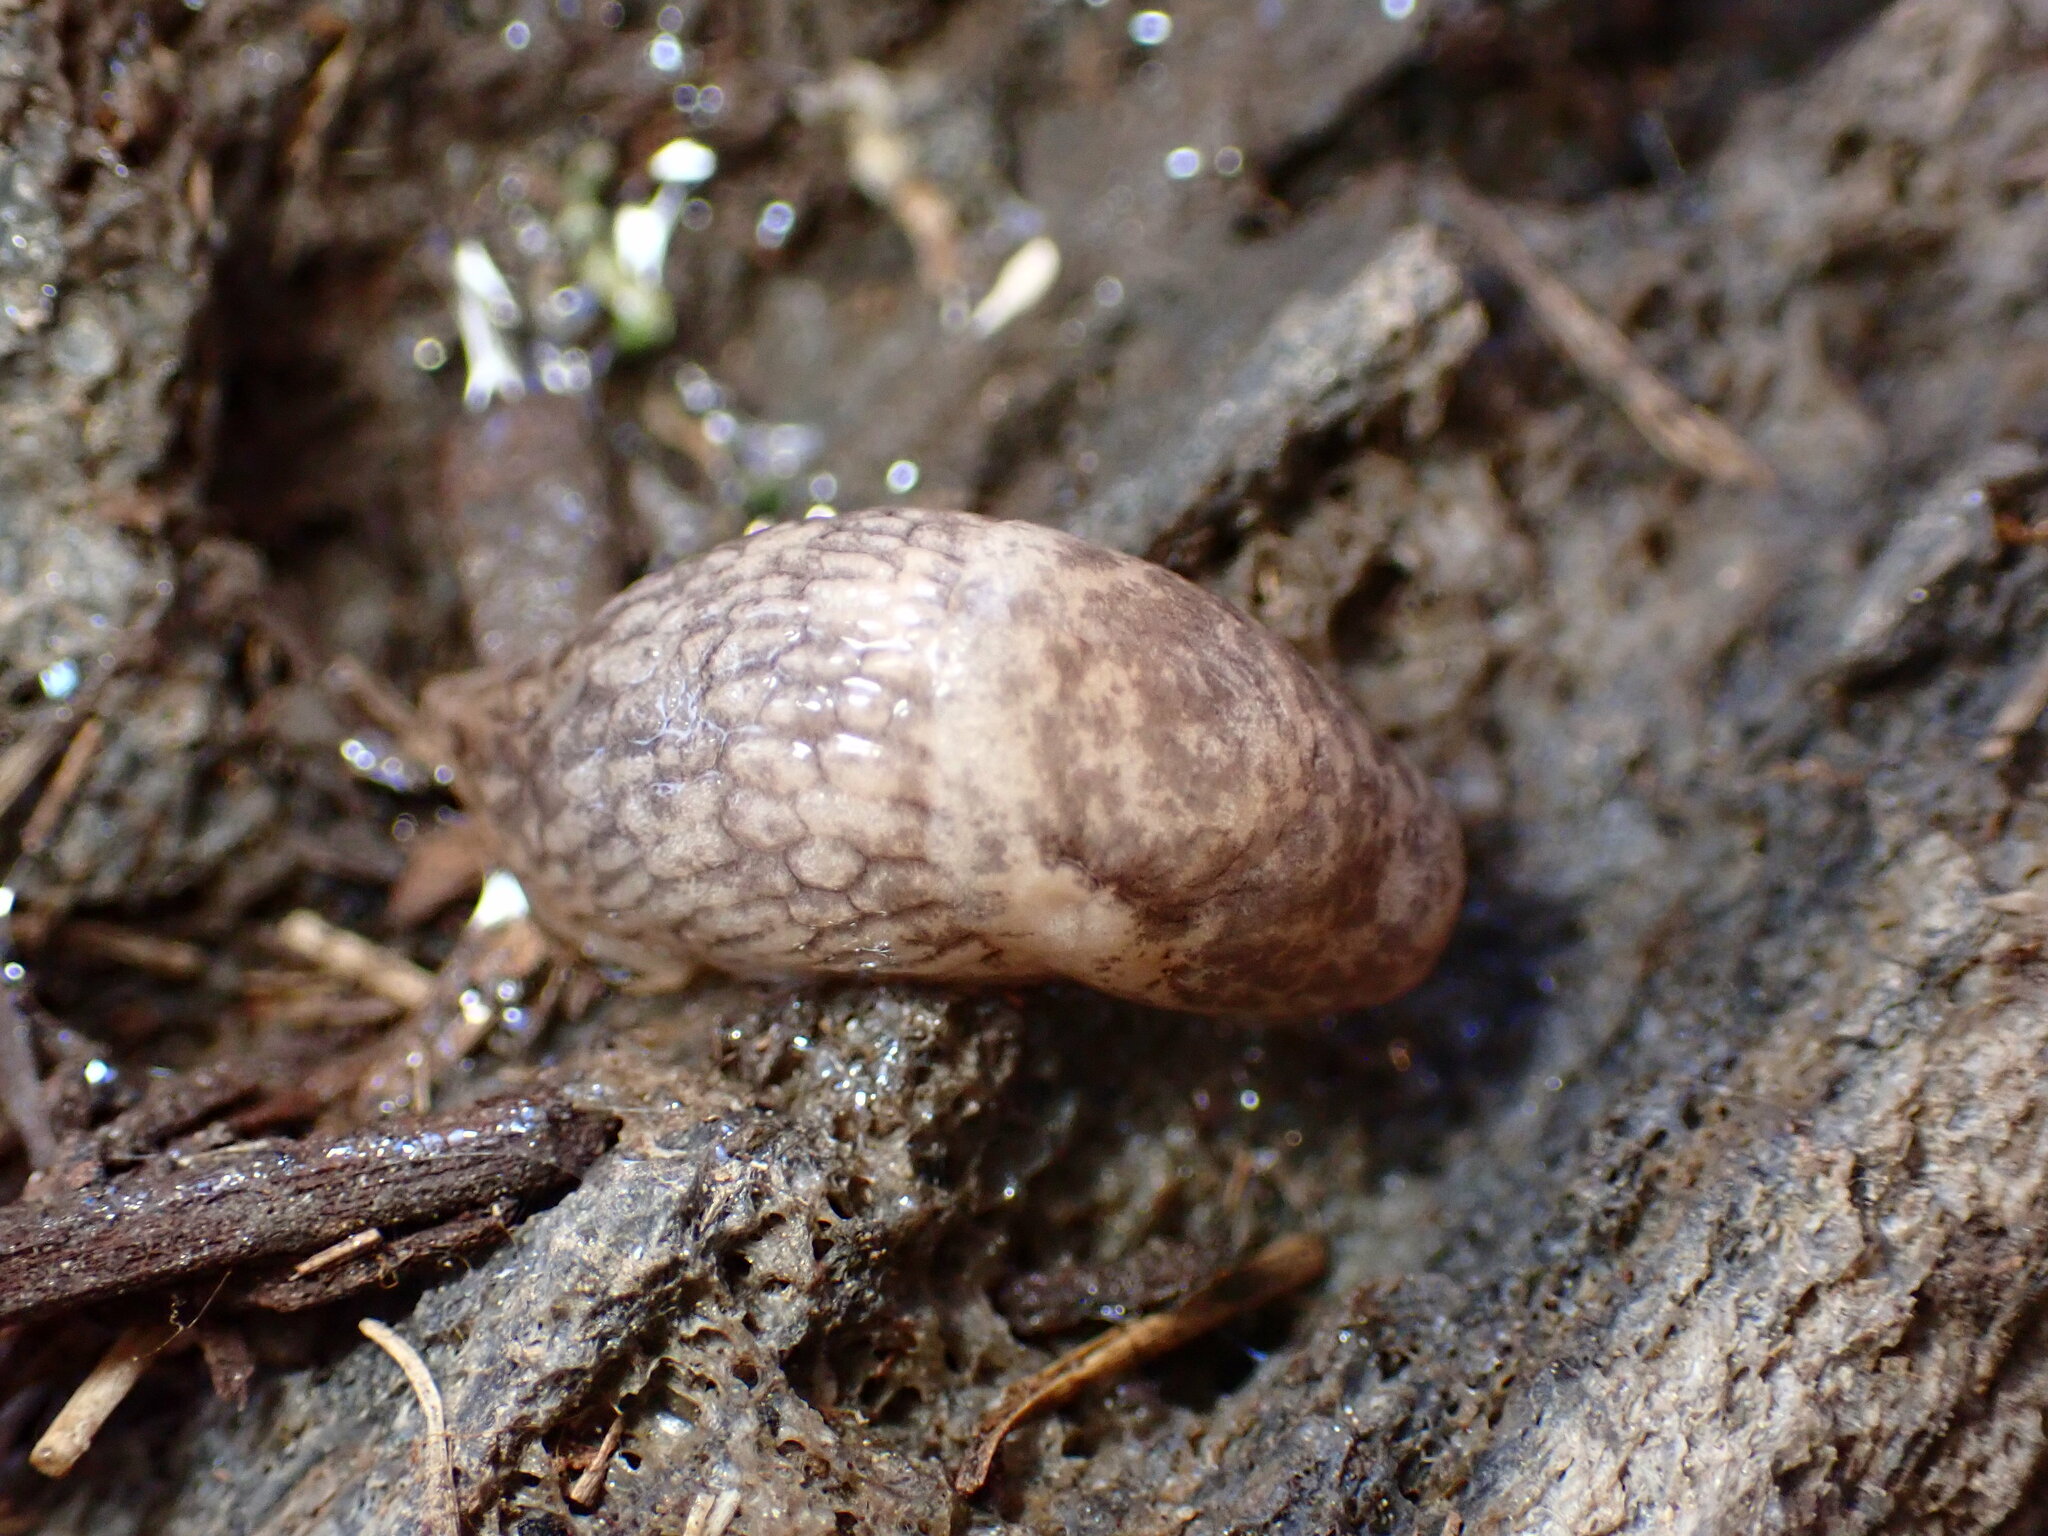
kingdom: Animalia
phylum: Mollusca
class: Gastropoda
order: Stylommatophora
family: Agriolimacidae
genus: Deroceras
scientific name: Deroceras reticulatum
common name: Gray field slug
